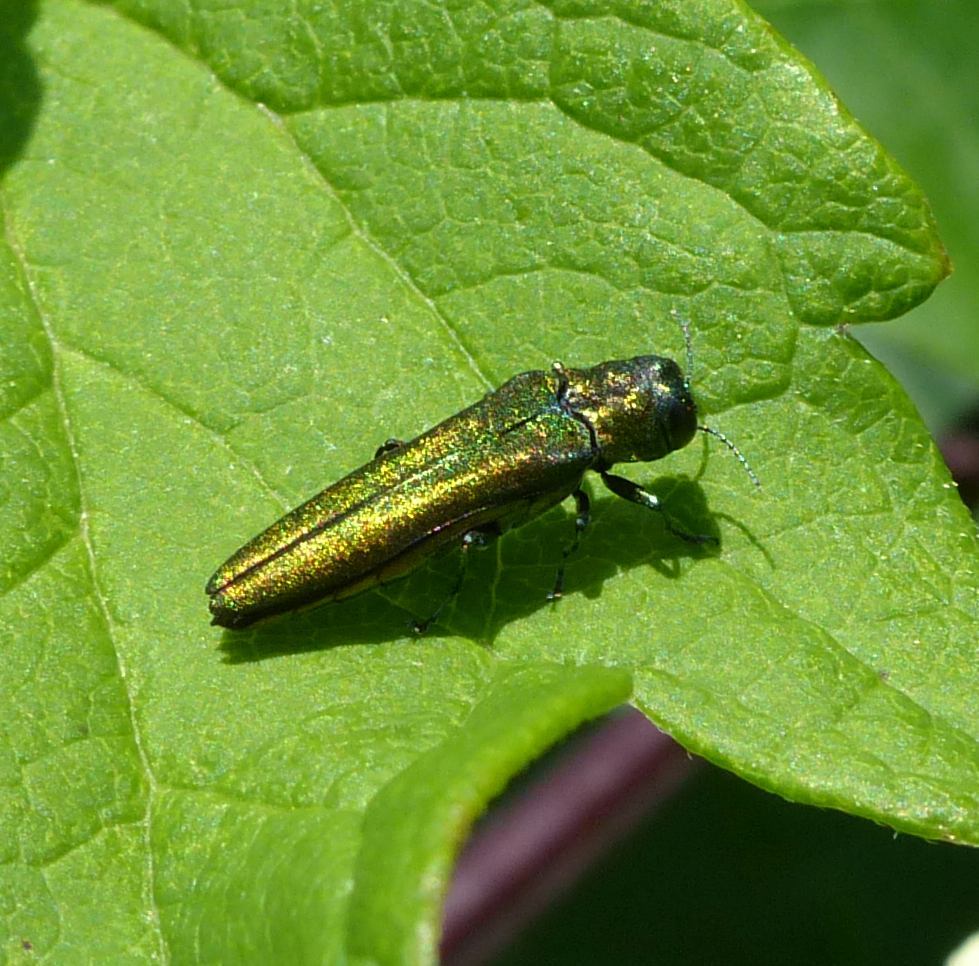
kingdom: Animalia
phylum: Arthropoda
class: Insecta
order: Coleoptera
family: Buprestidae
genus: Agrilus
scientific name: Agrilus planipennis
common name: Emerald ash borer
